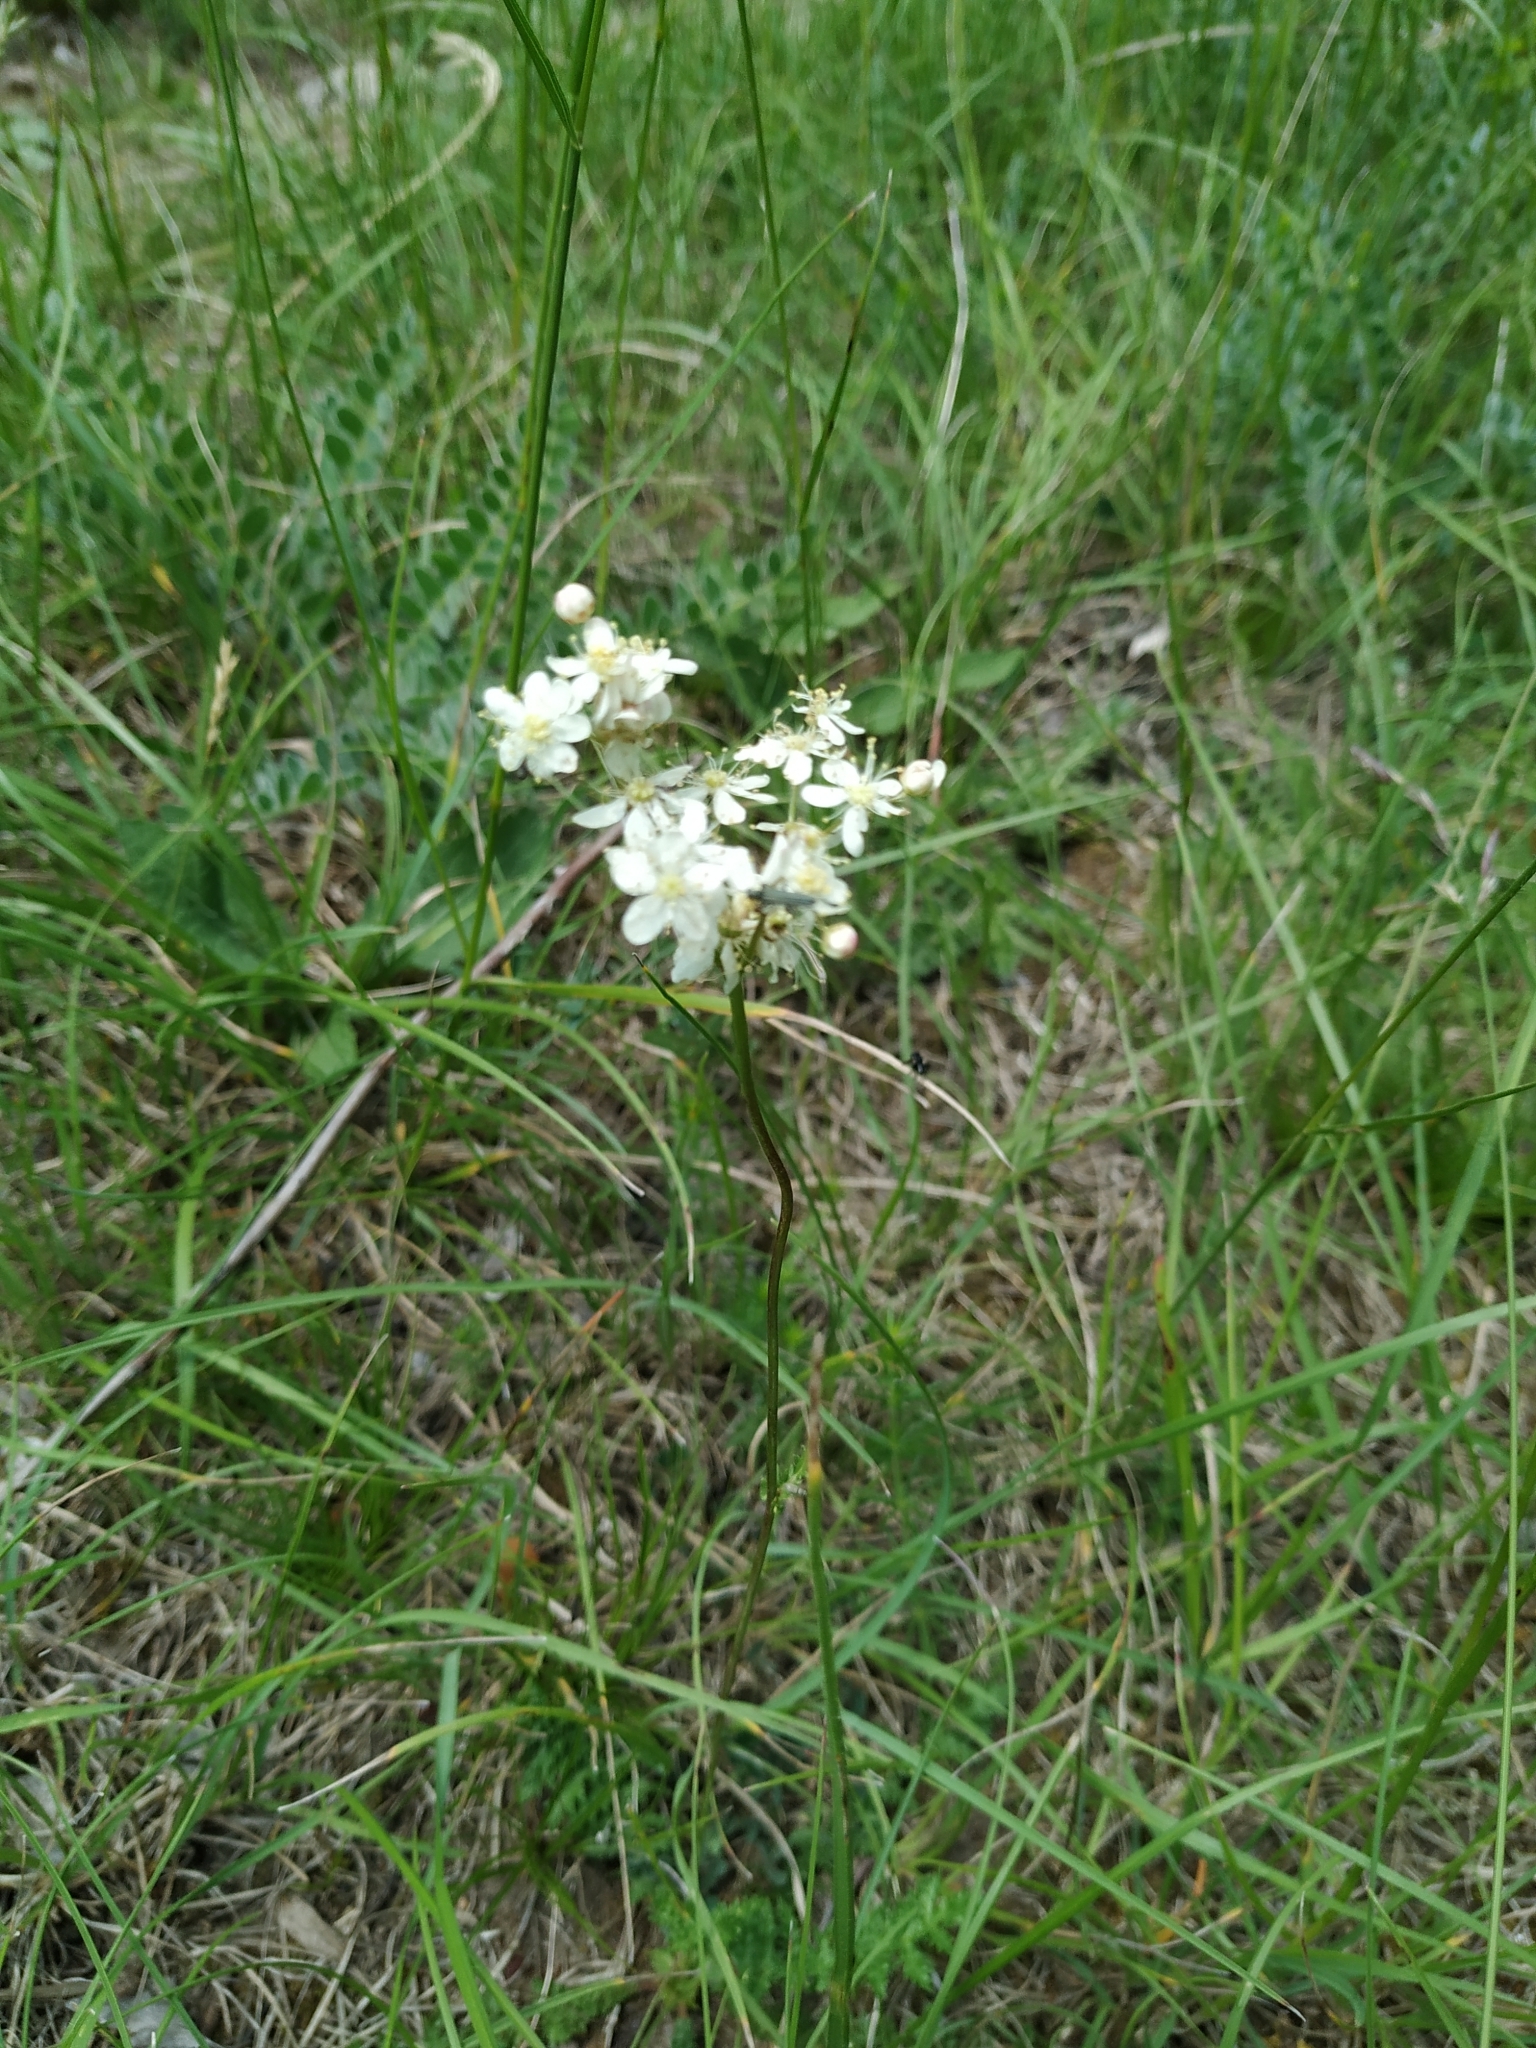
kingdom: Plantae
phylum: Tracheophyta
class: Magnoliopsida
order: Rosales
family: Rosaceae
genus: Filipendula
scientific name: Filipendula vulgaris
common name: Dropwort
